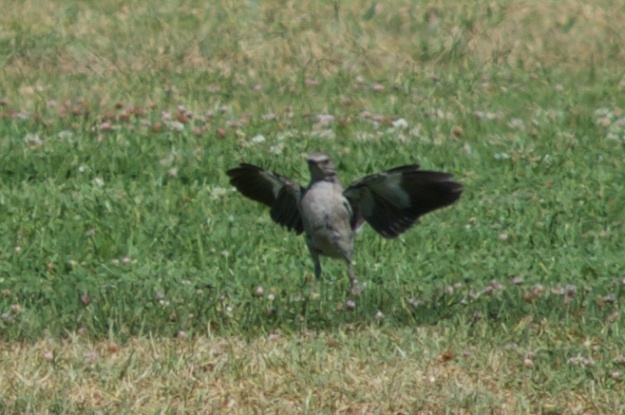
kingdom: Animalia
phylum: Chordata
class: Aves
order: Passeriformes
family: Mimidae
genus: Mimus
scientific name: Mimus polyglottos
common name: Northern mockingbird
